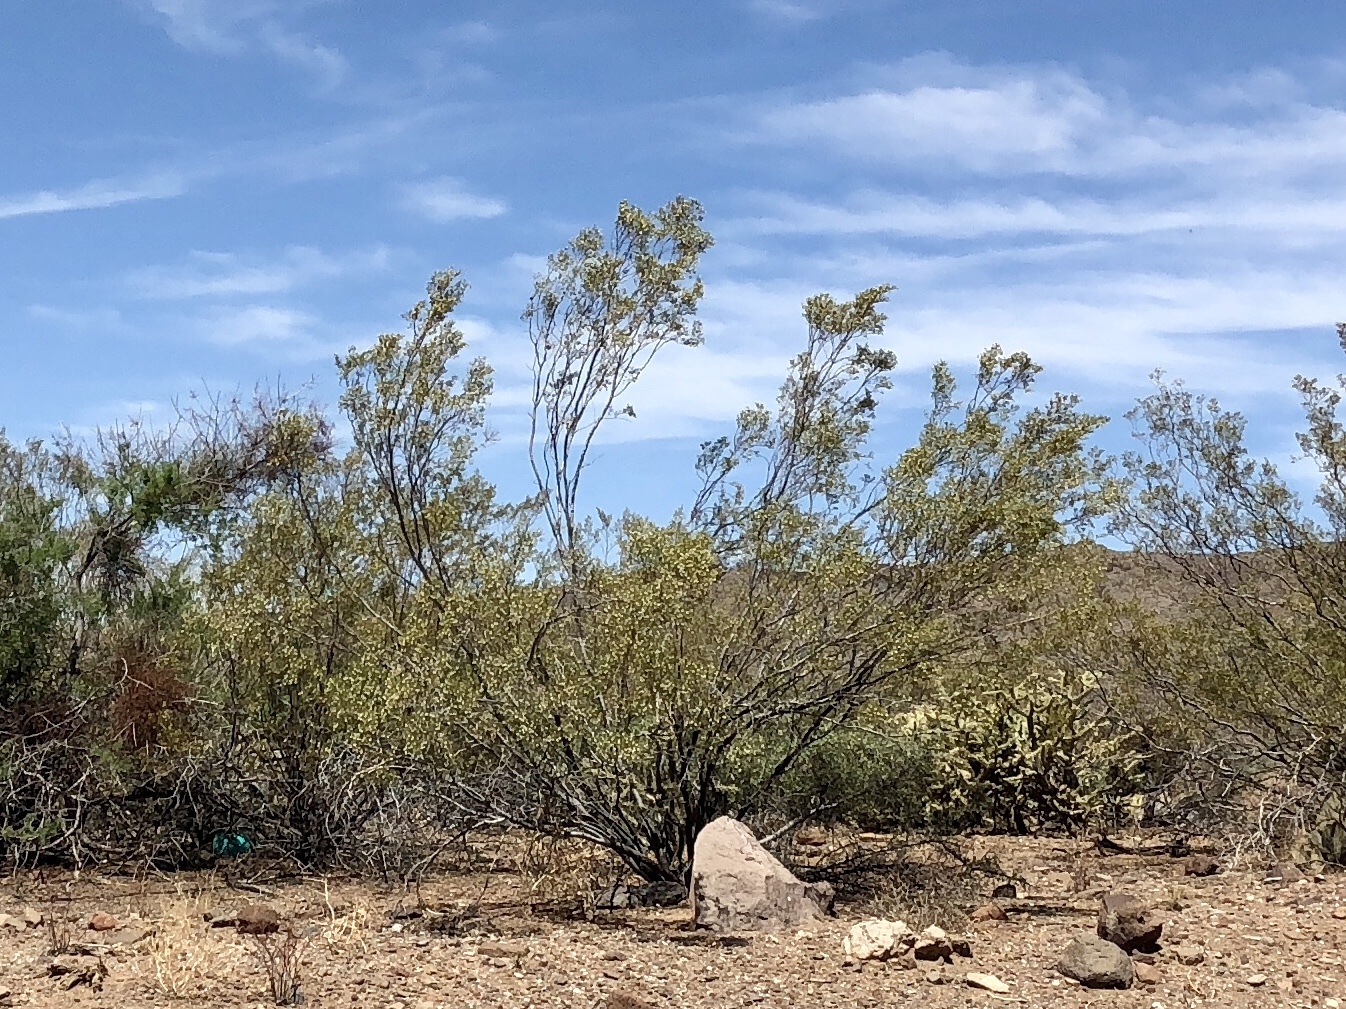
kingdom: Plantae
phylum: Tracheophyta
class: Magnoliopsida
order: Zygophyllales
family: Zygophyllaceae
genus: Larrea
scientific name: Larrea tridentata
